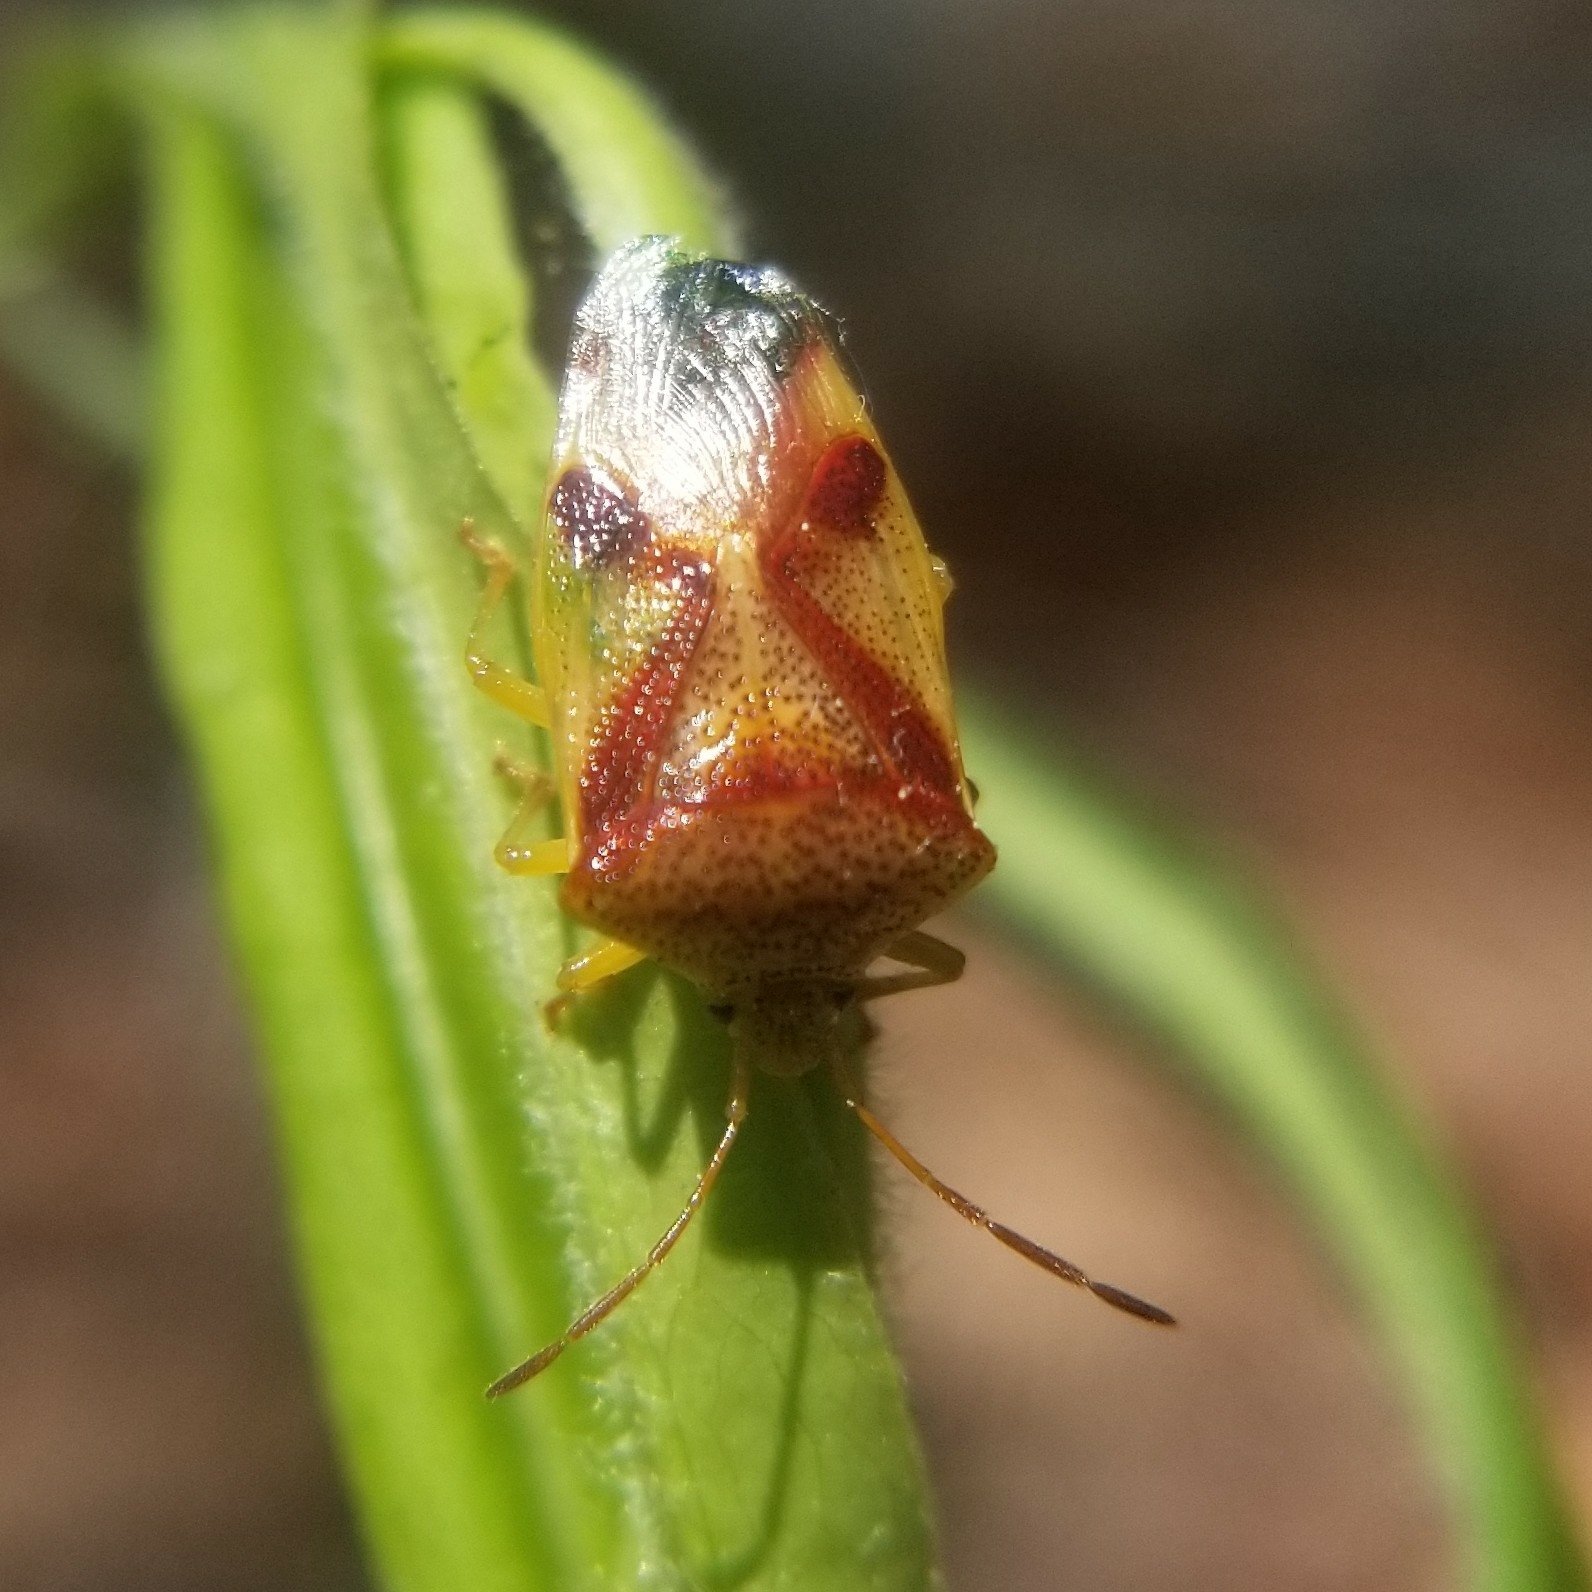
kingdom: Animalia
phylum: Arthropoda
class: Insecta
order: Hemiptera
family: Acanthosomatidae
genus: Elasmostethus
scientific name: Elasmostethus cruciatus
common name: Red-cross shield bug
